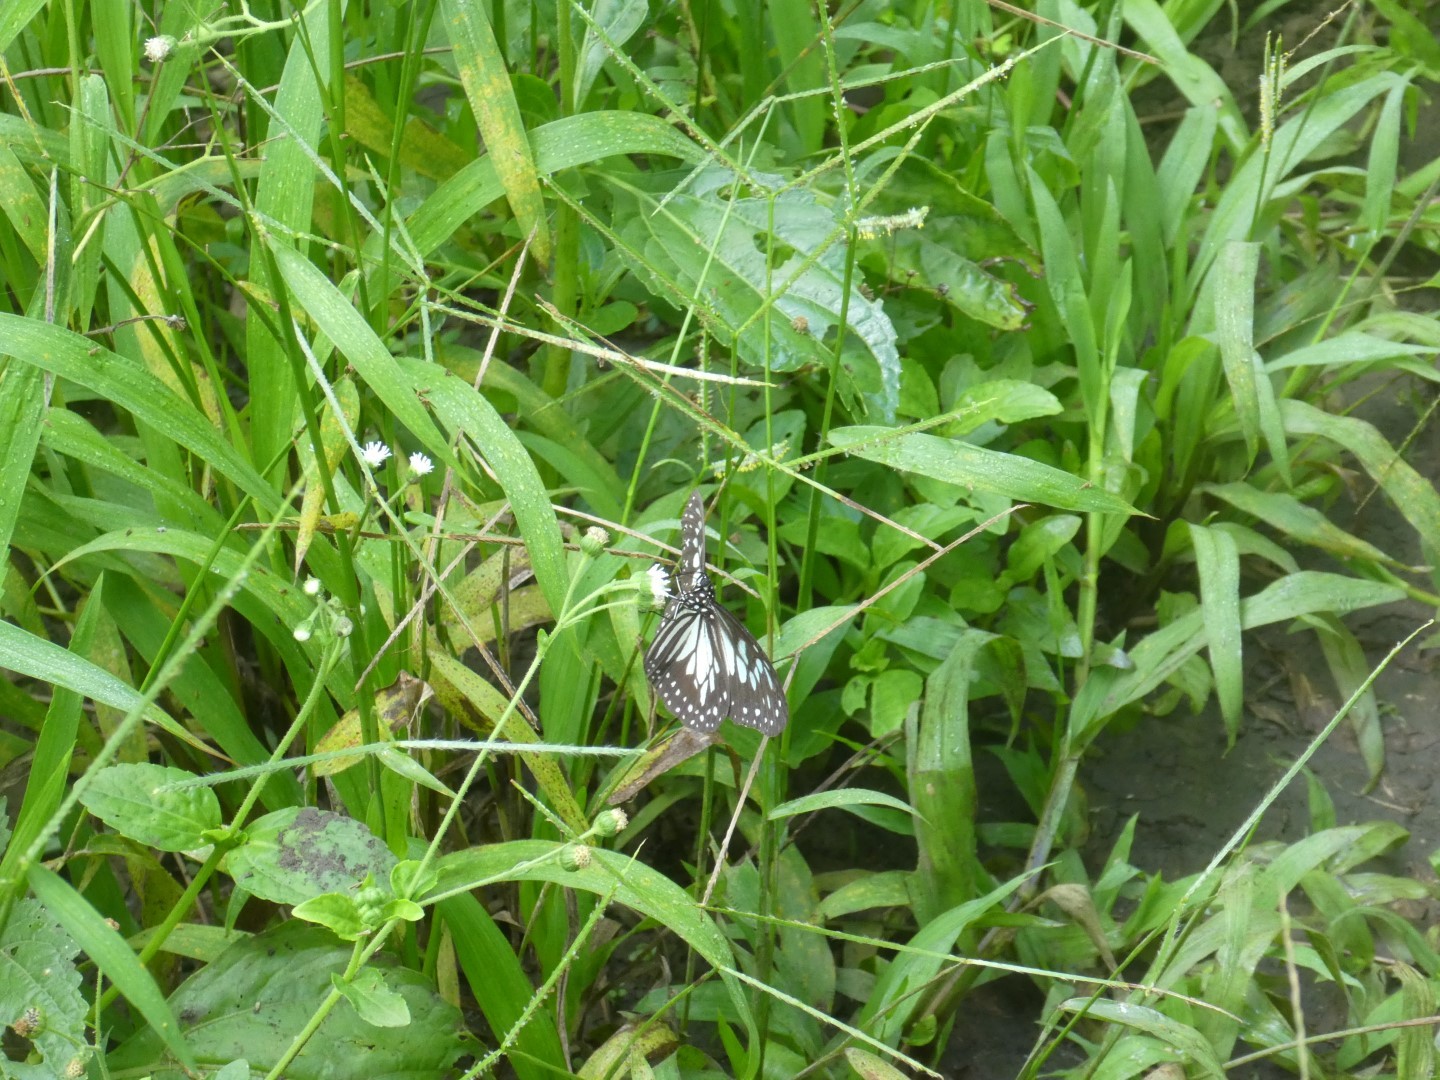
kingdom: Animalia
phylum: Arthropoda
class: Insecta
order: Lepidoptera
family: Nymphalidae
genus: Ideopsis
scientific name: Ideopsis juventa
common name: Grey glassy tiger
